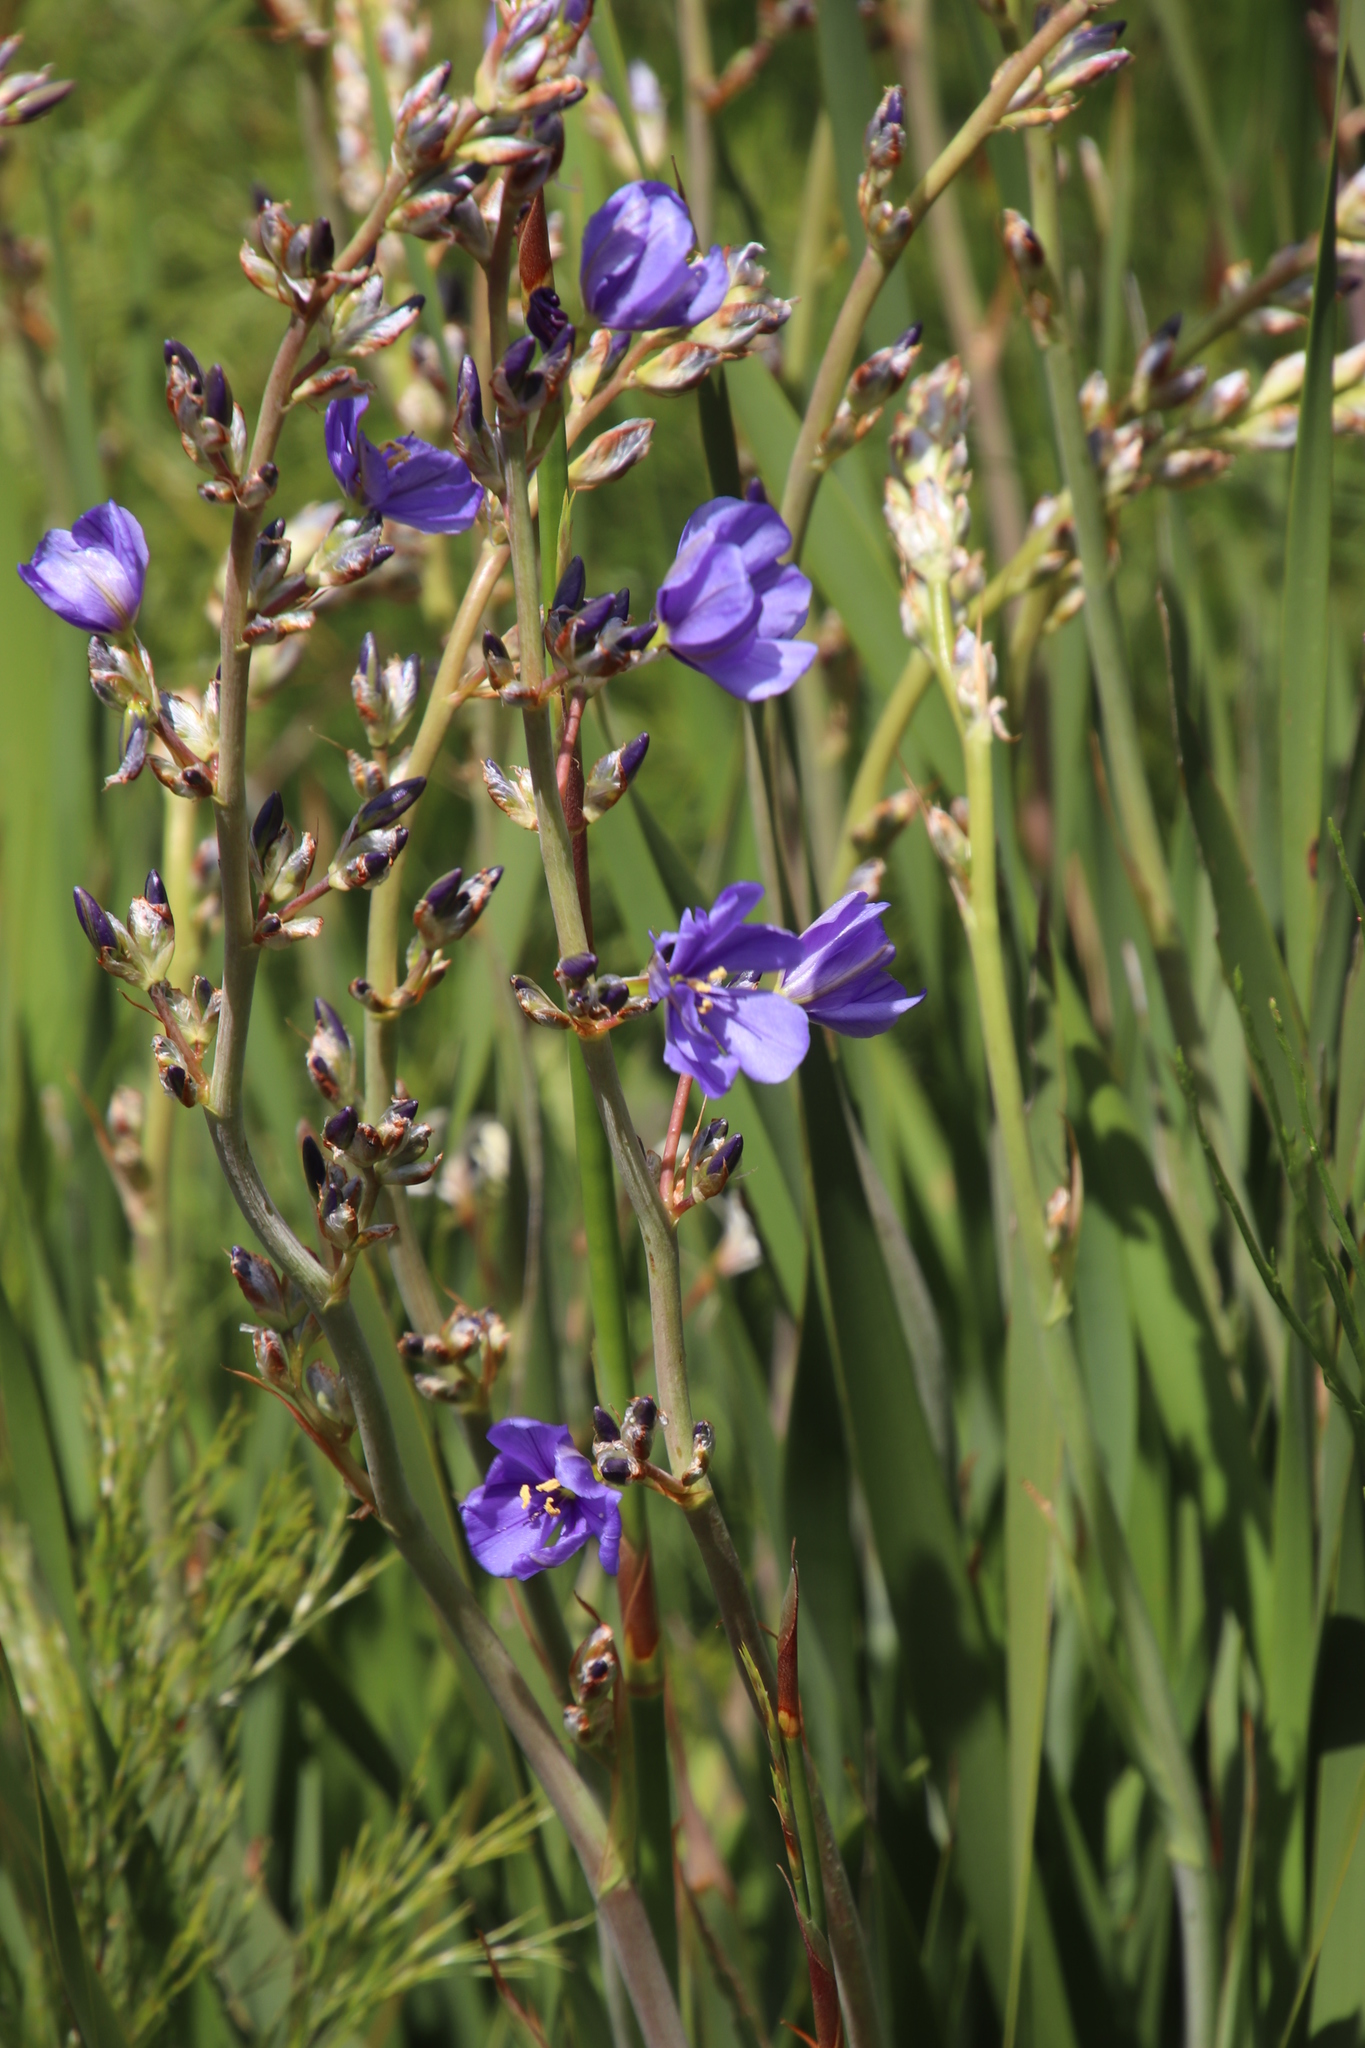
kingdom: Plantae
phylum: Tracheophyta
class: Liliopsida
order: Asparagales
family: Iridaceae
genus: Aristea
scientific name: Aristea bakeri
